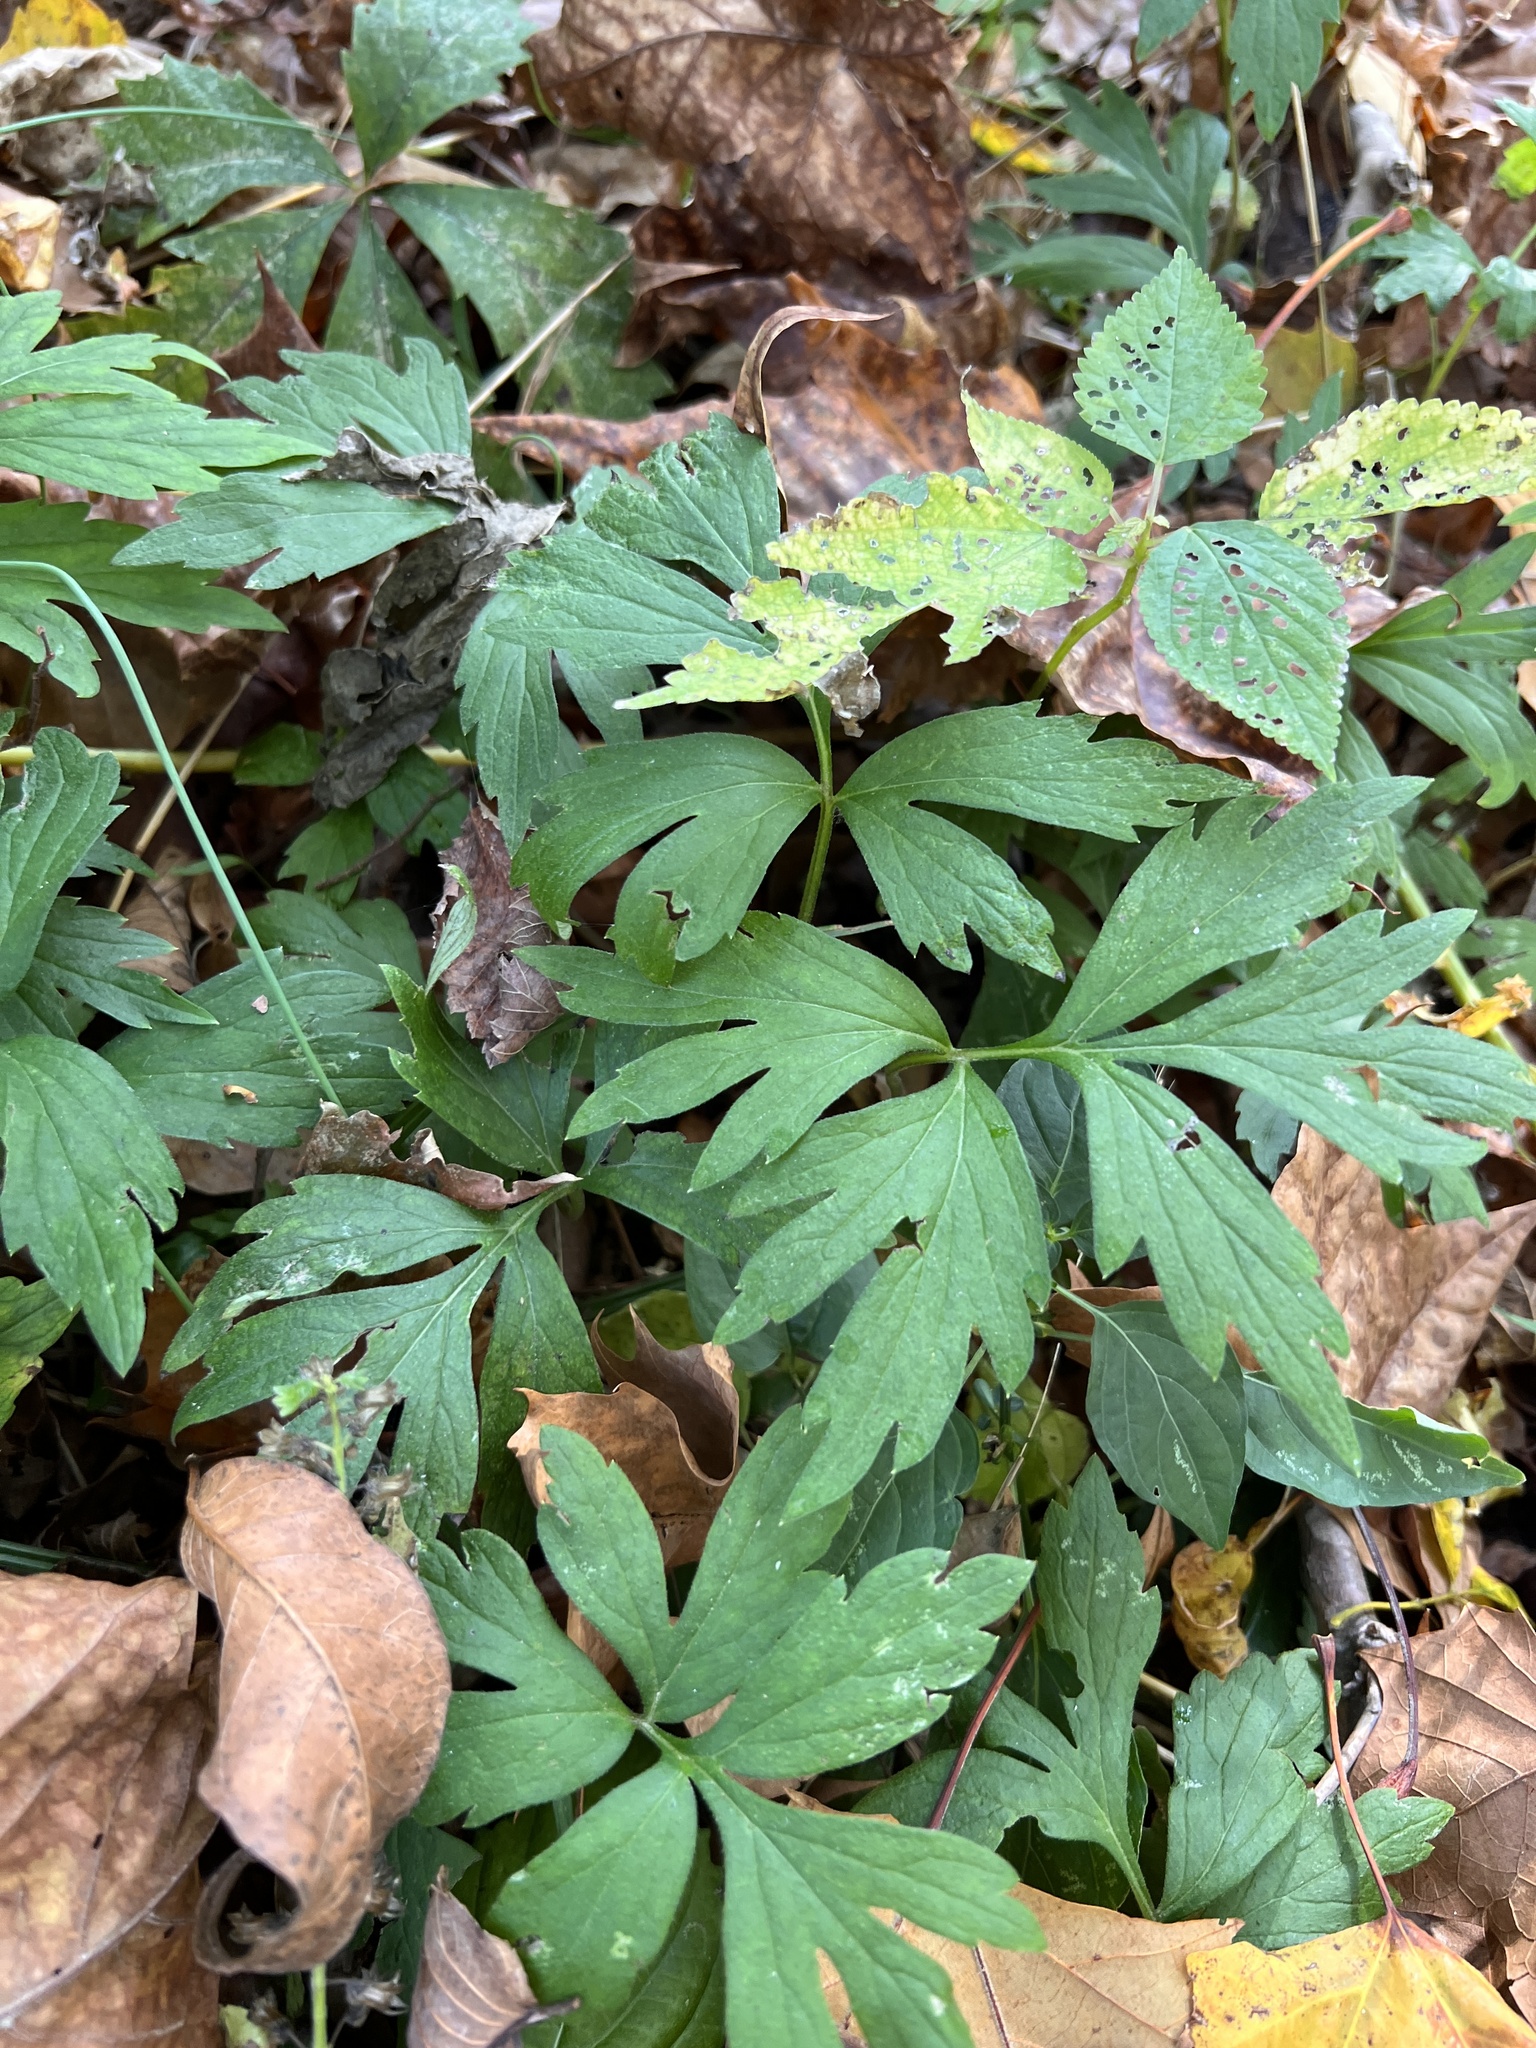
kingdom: Plantae
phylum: Tracheophyta
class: Magnoliopsida
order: Boraginales
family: Hydrophyllaceae
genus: Hydrophyllum
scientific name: Hydrophyllum virginianum
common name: Virginia waterleaf
